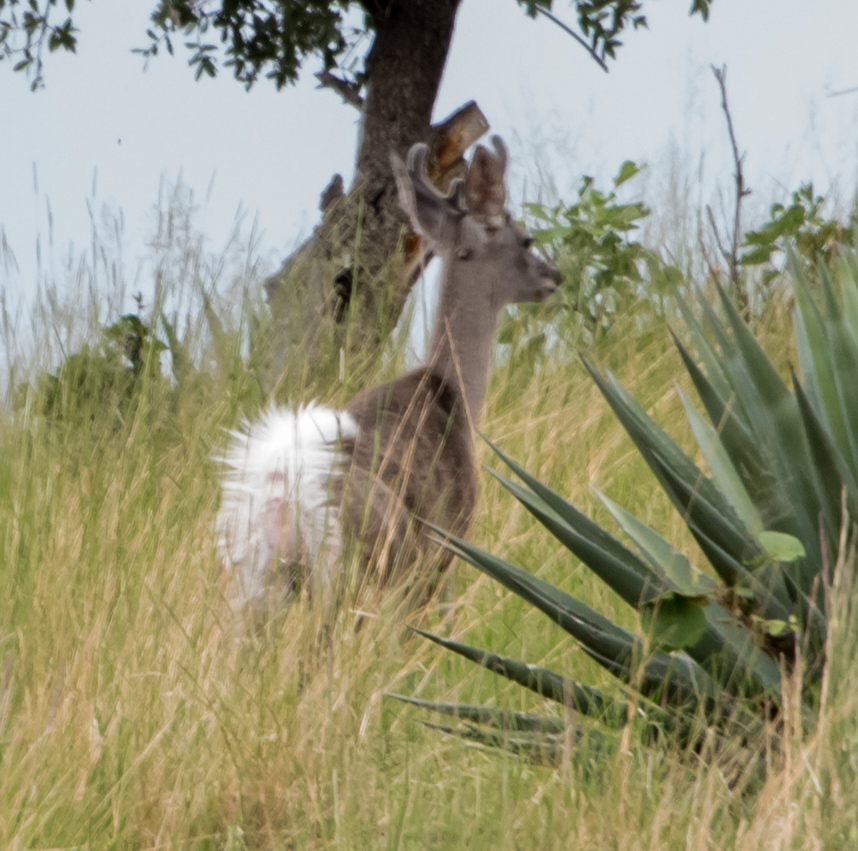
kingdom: Animalia
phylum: Chordata
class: Mammalia
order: Artiodactyla
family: Cervidae
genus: Odocoileus
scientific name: Odocoileus virginianus
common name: White-tailed deer
